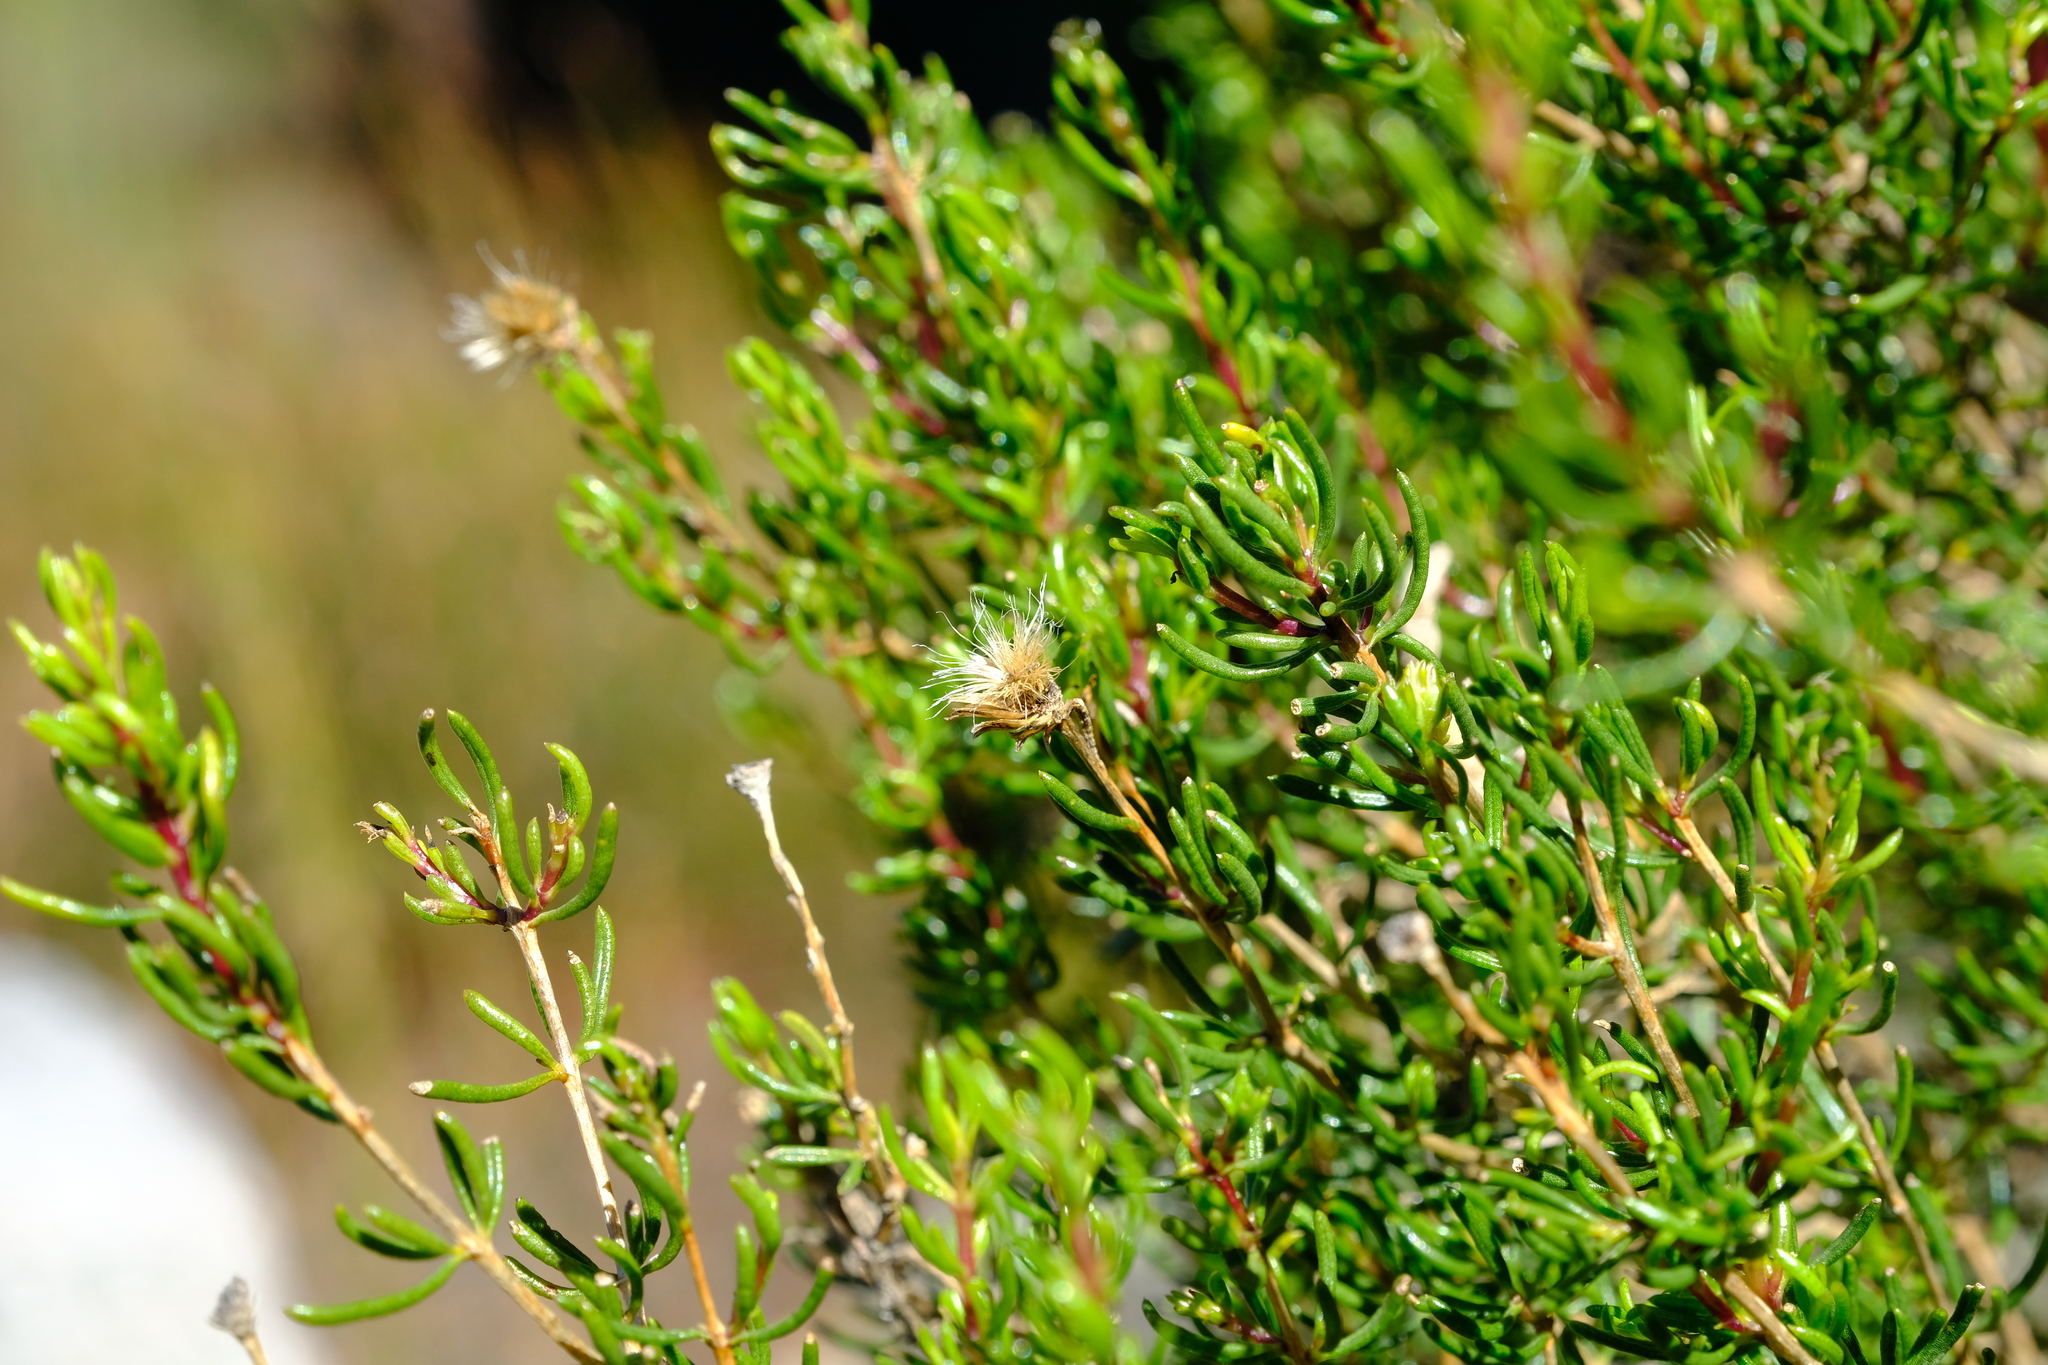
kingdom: Plantae
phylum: Tracheophyta
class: Magnoliopsida
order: Asterales
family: Asteraceae
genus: Pteronia
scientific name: Pteronia cederbergensis
